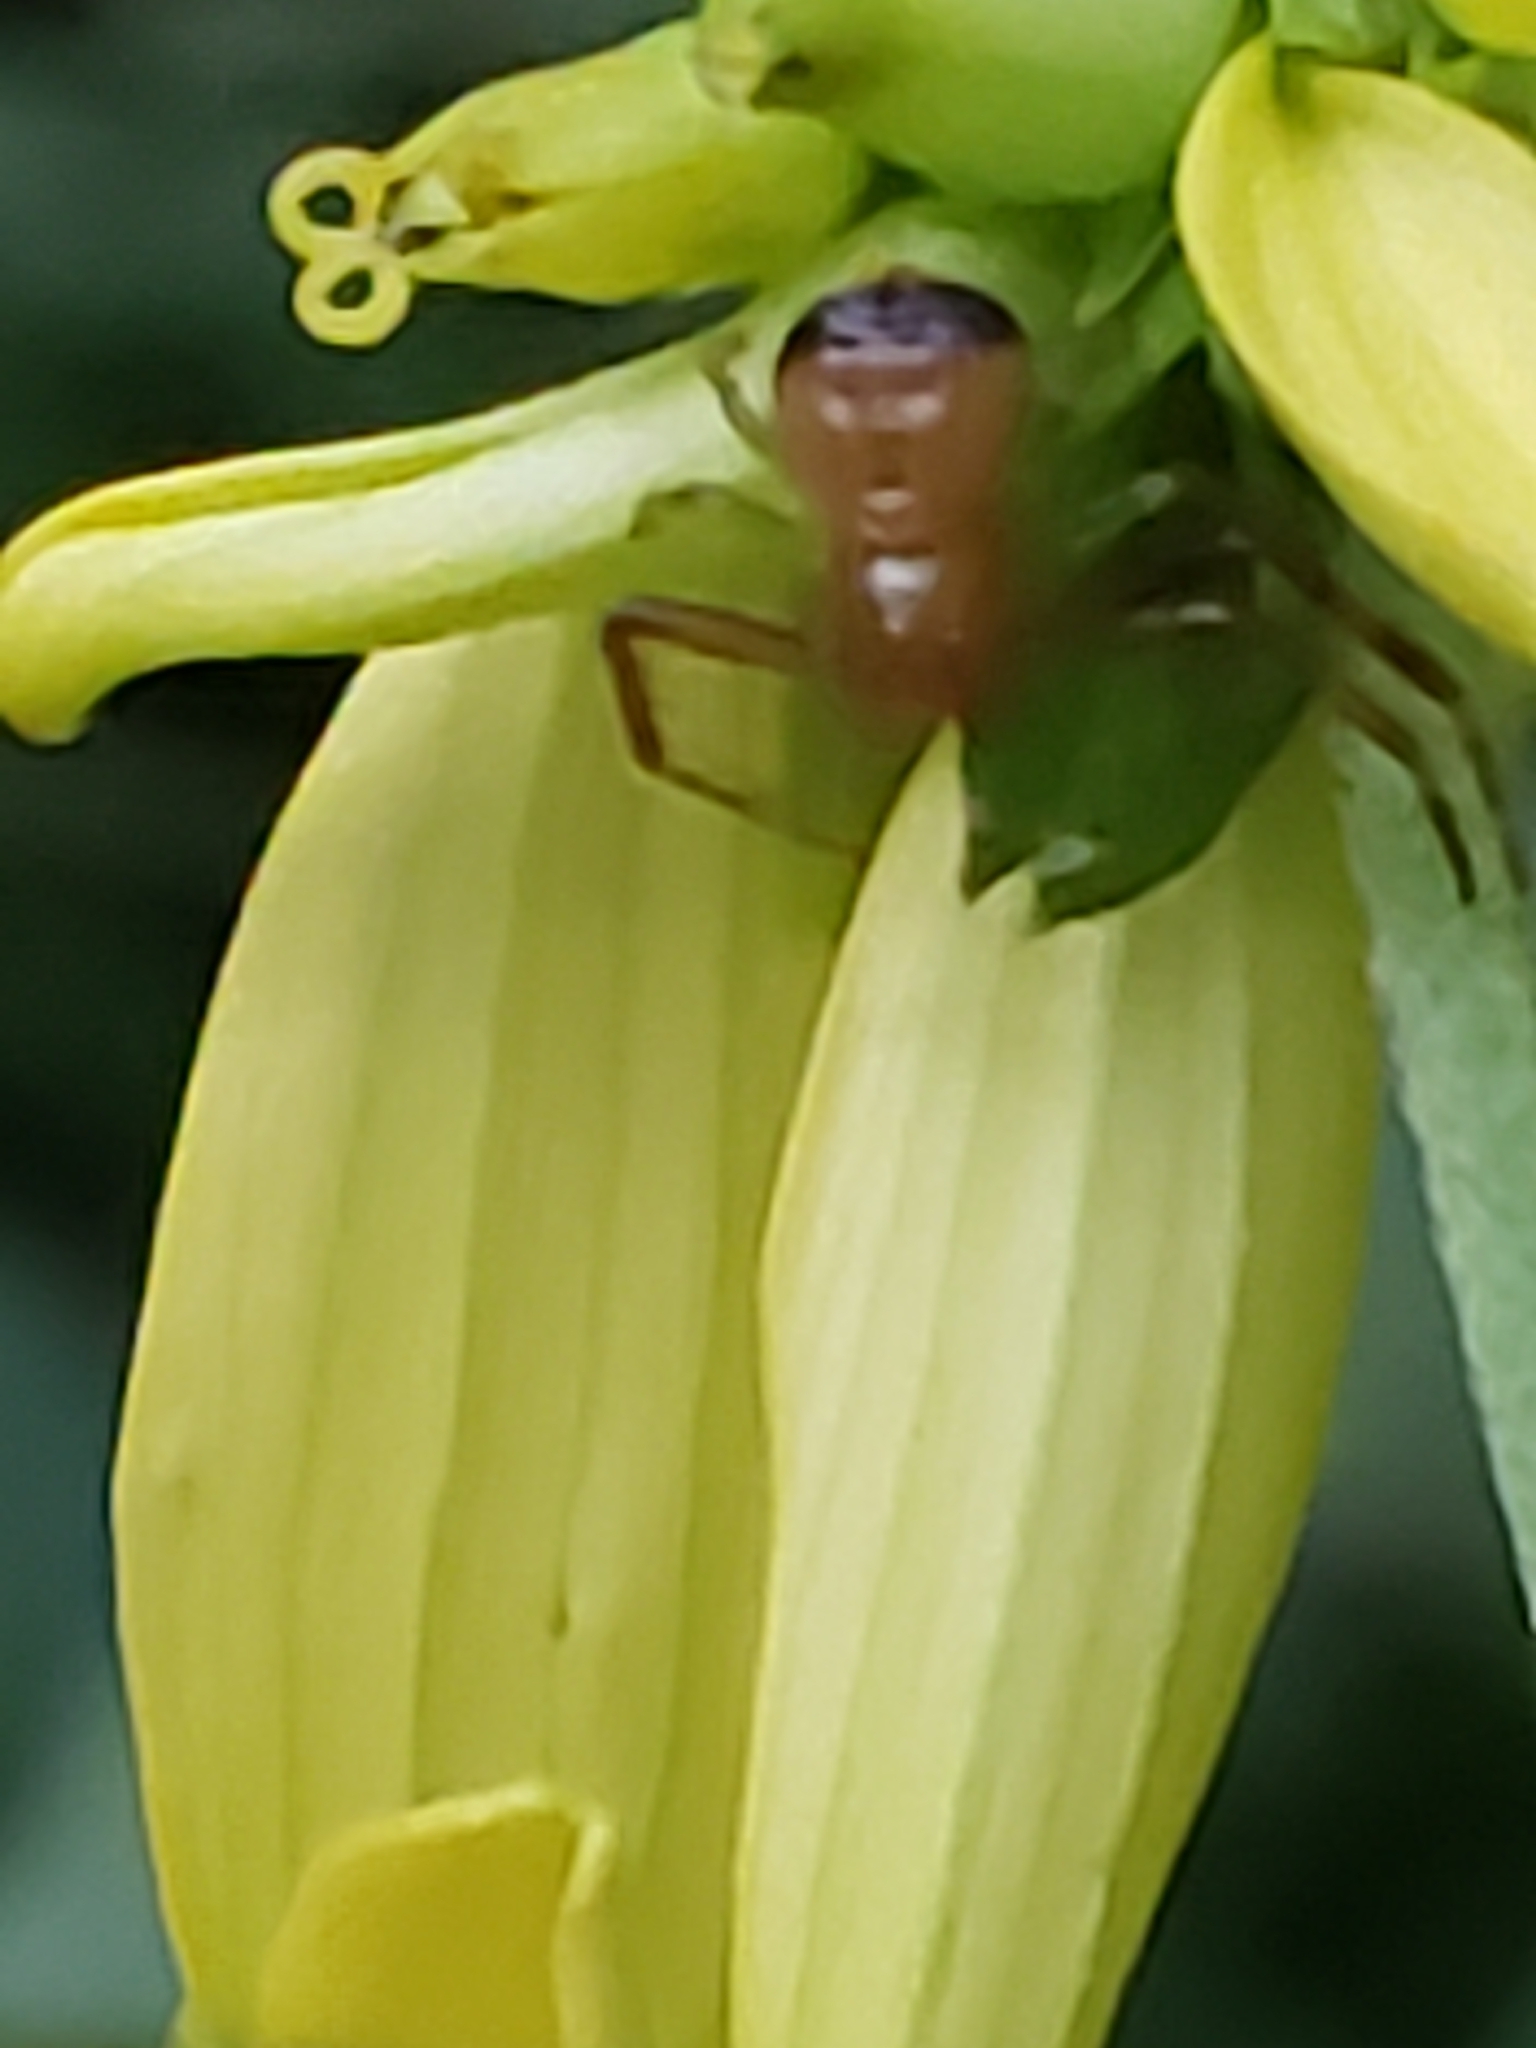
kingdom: Animalia
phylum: Arthropoda
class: Arachnida
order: Araneae
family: Thomisidae
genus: Synema
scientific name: Synema parvulum
